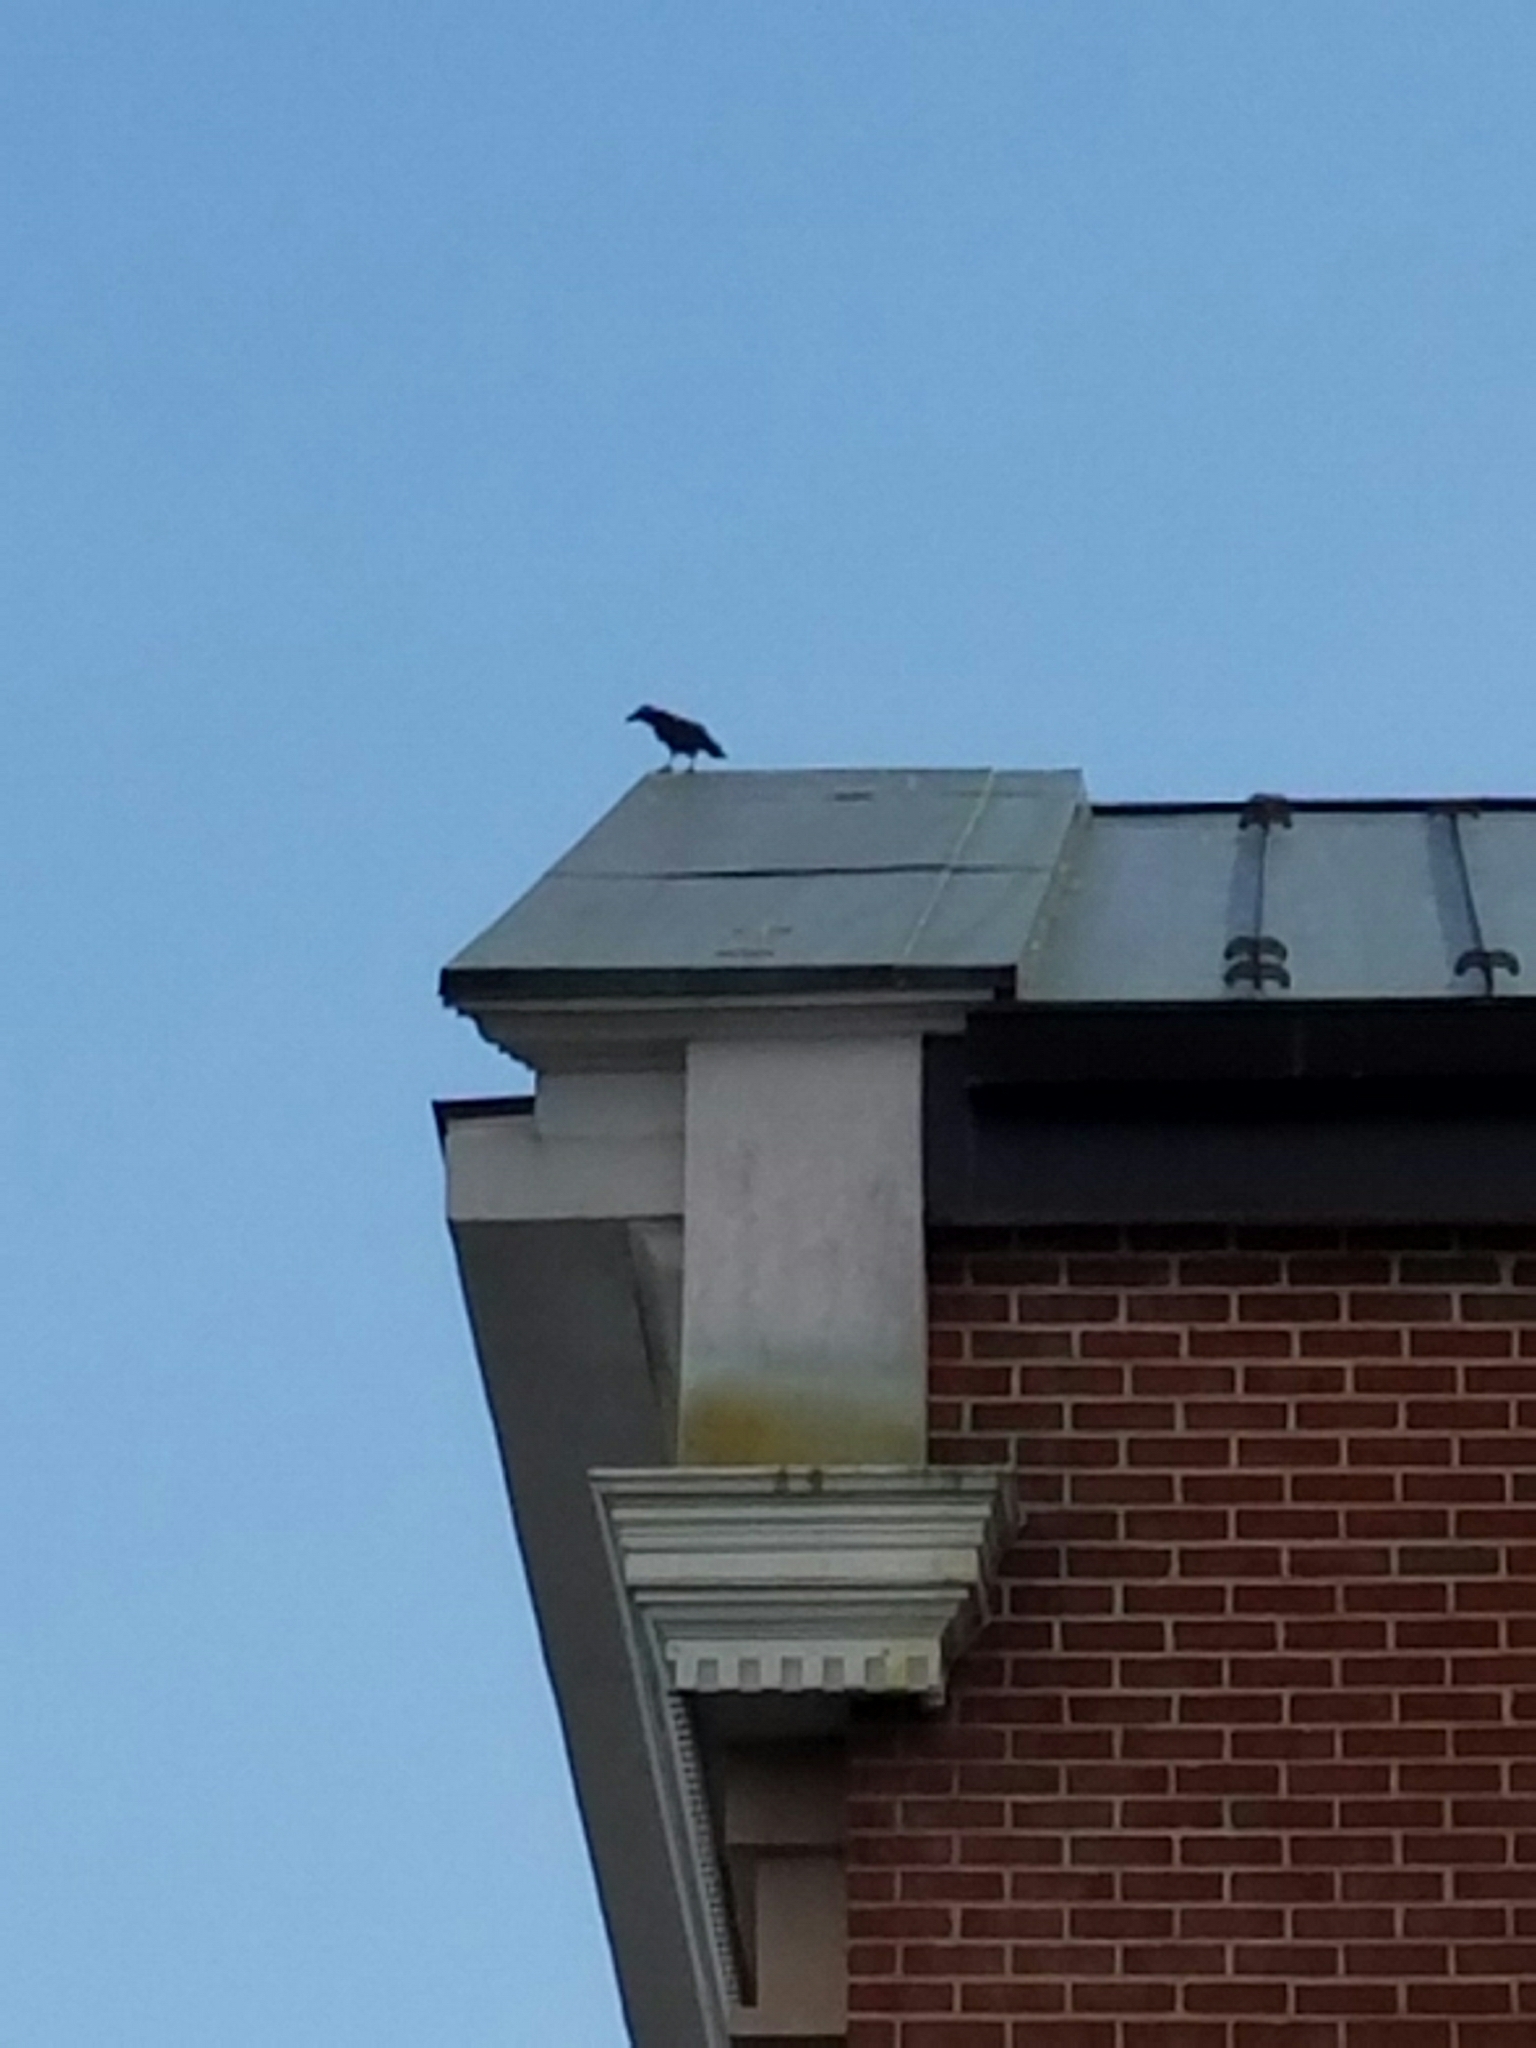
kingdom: Animalia
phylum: Chordata
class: Aves
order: Passeriformes
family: Corvidae
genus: Corvus
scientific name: Corvus ossifragus
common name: Fish crow
